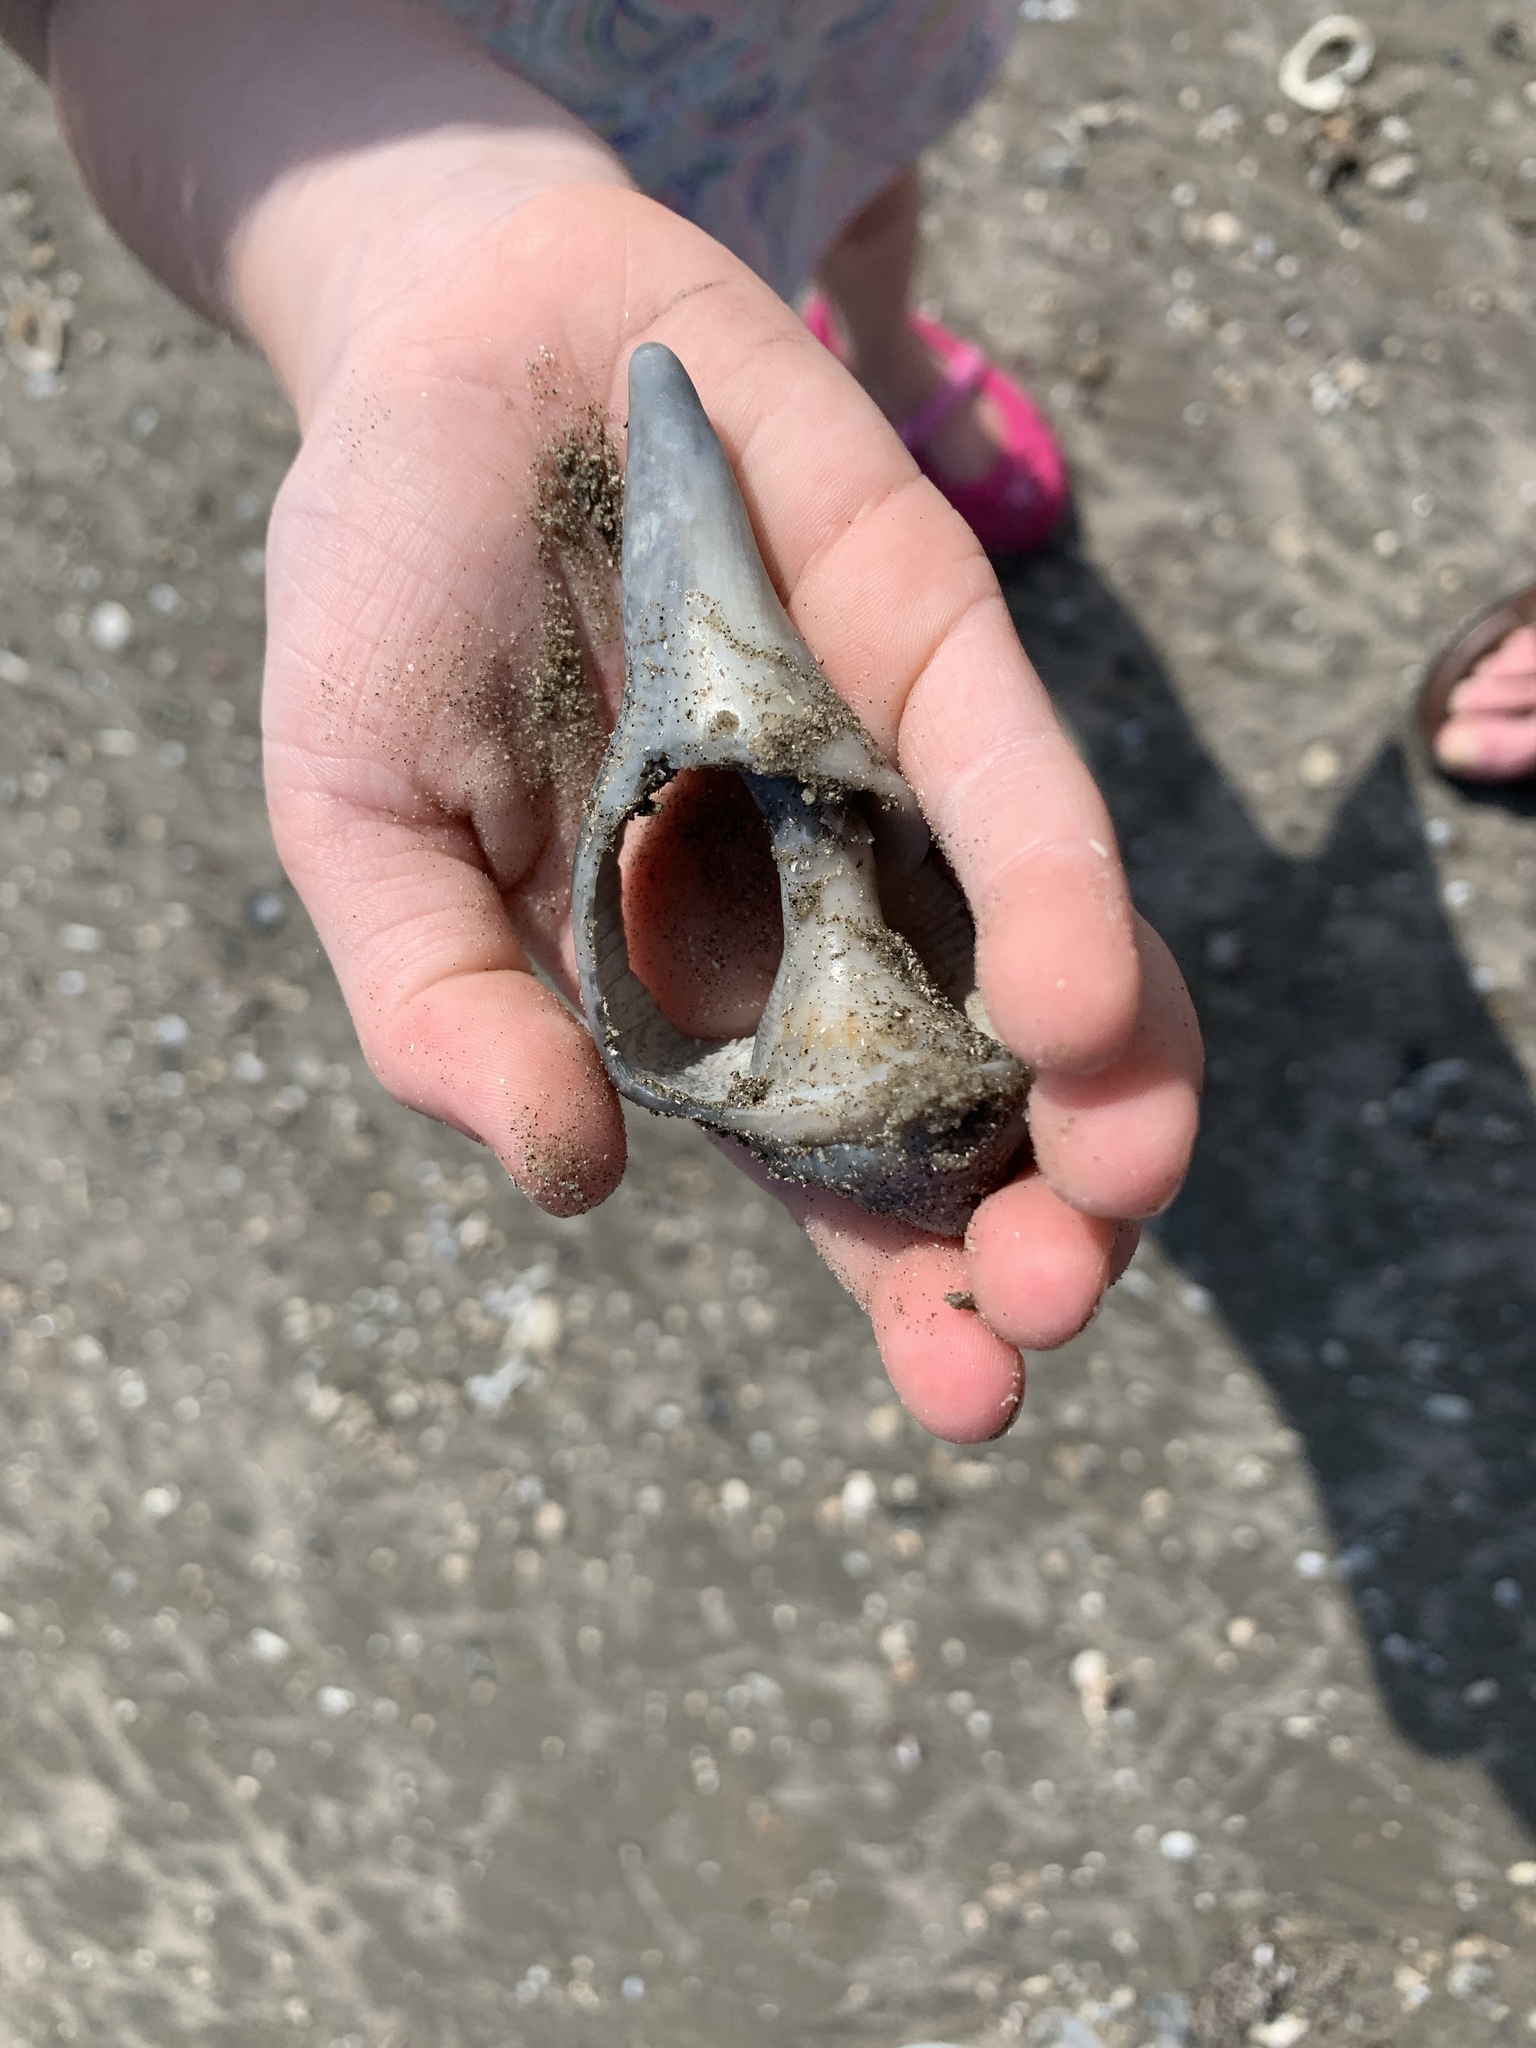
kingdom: Animalia
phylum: Mollusca
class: Gastropoda
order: Neogastropoda
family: Busyconidae
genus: Sinistrofulgur
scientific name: Sinistrofulgur pulleyi
